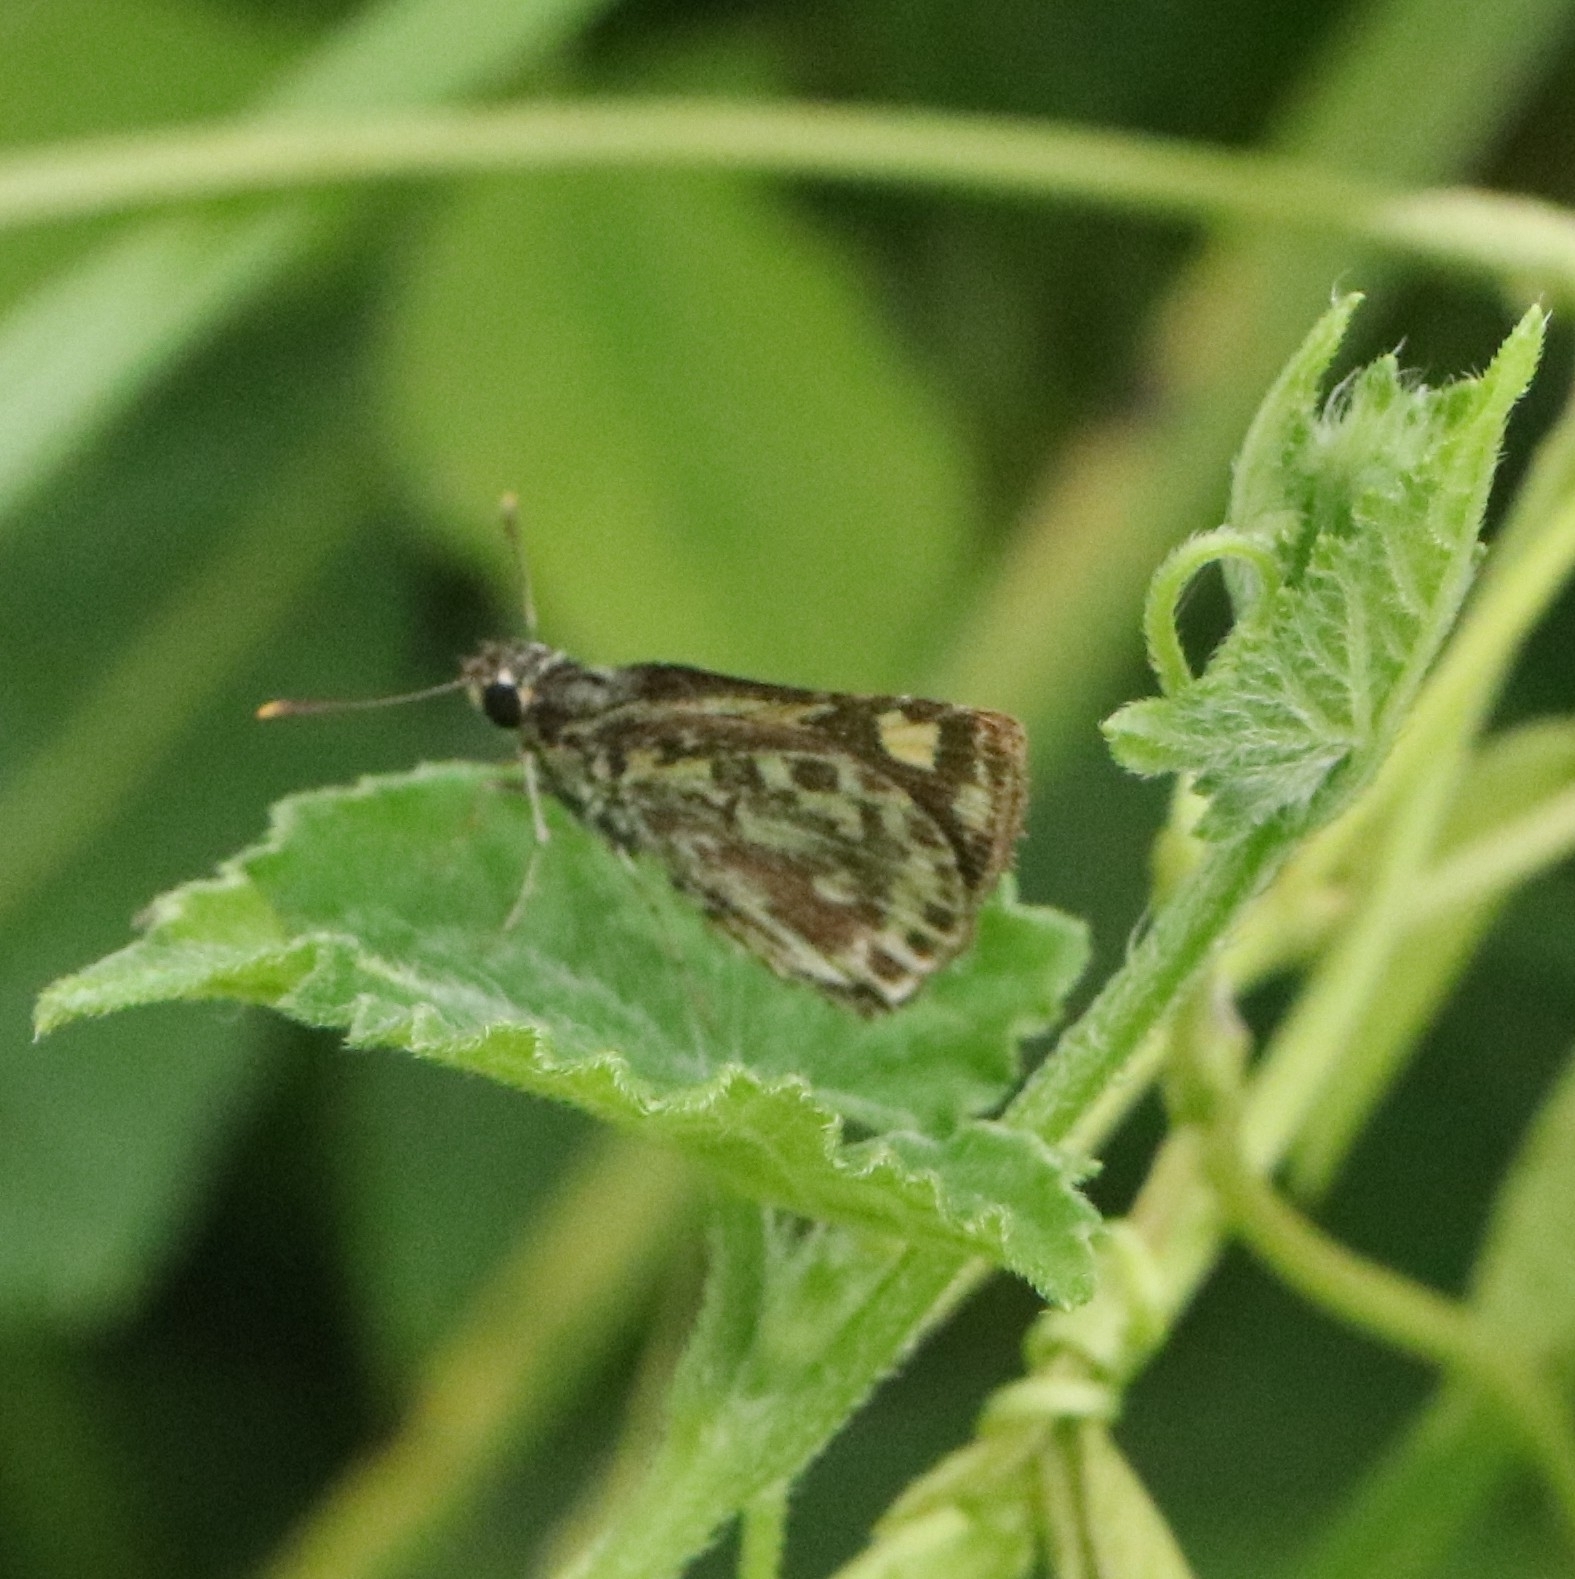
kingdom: Animalia
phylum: Arthropoda
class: Insecta
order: Lepidoptera
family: Hesperiidae
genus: Ampittia
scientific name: Ampittia dioscorides
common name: Common bush hopper
